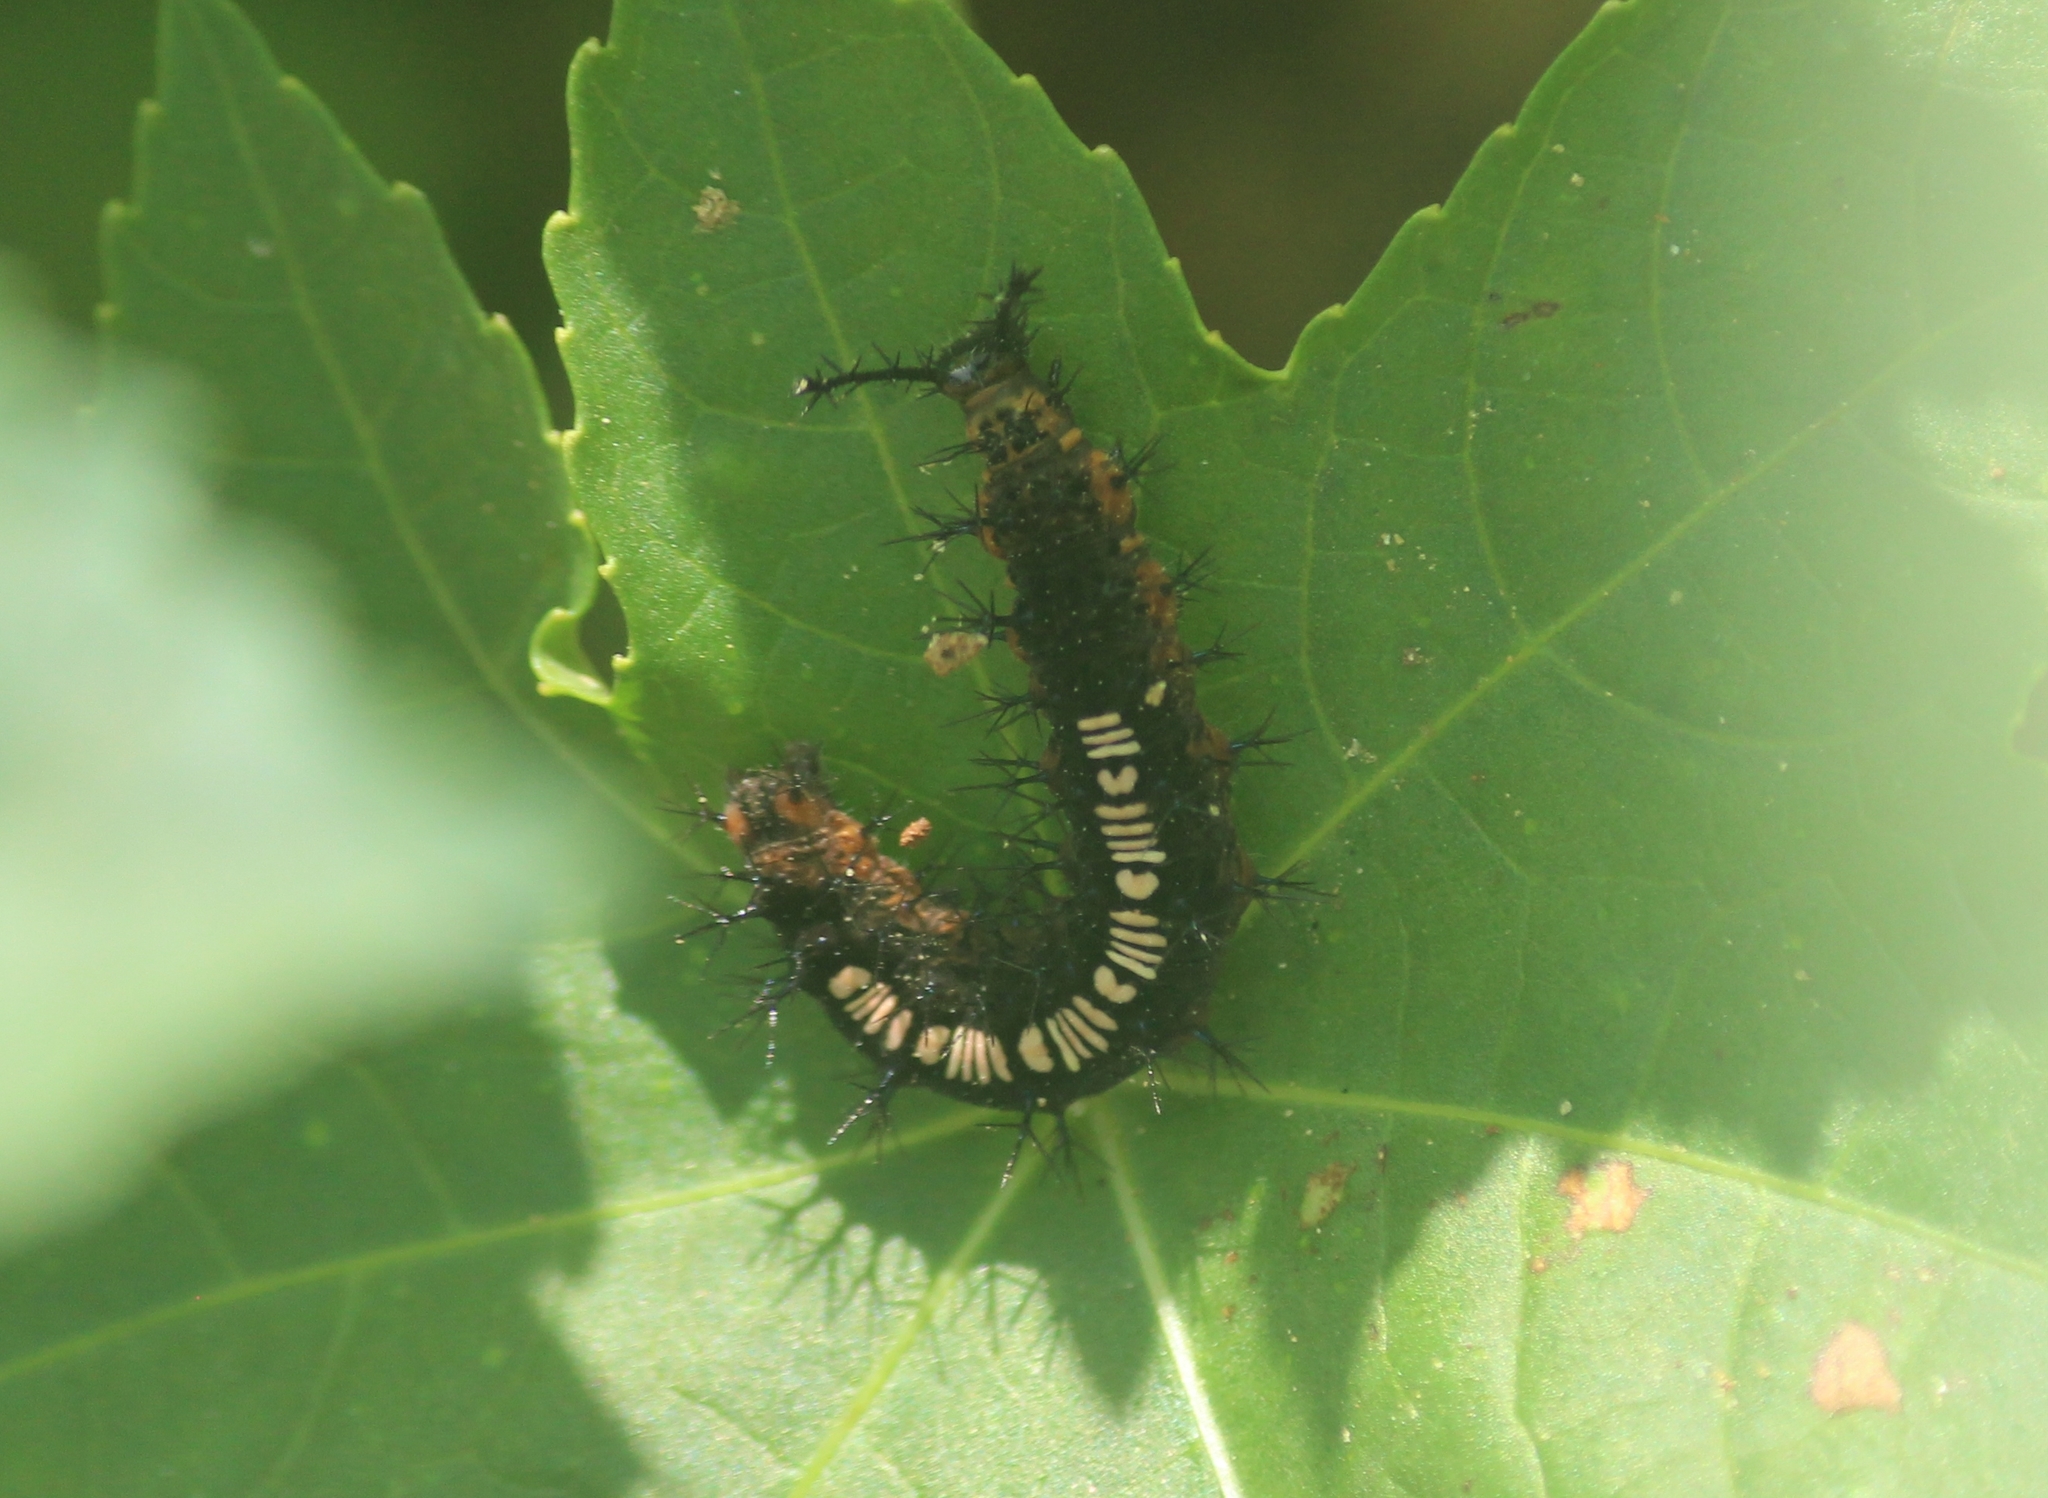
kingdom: Animalia
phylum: Arthropoda
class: Insecta
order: Lepidoptera
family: Nymphalidae
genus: Ariadne
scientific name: Ariadne ariadne
